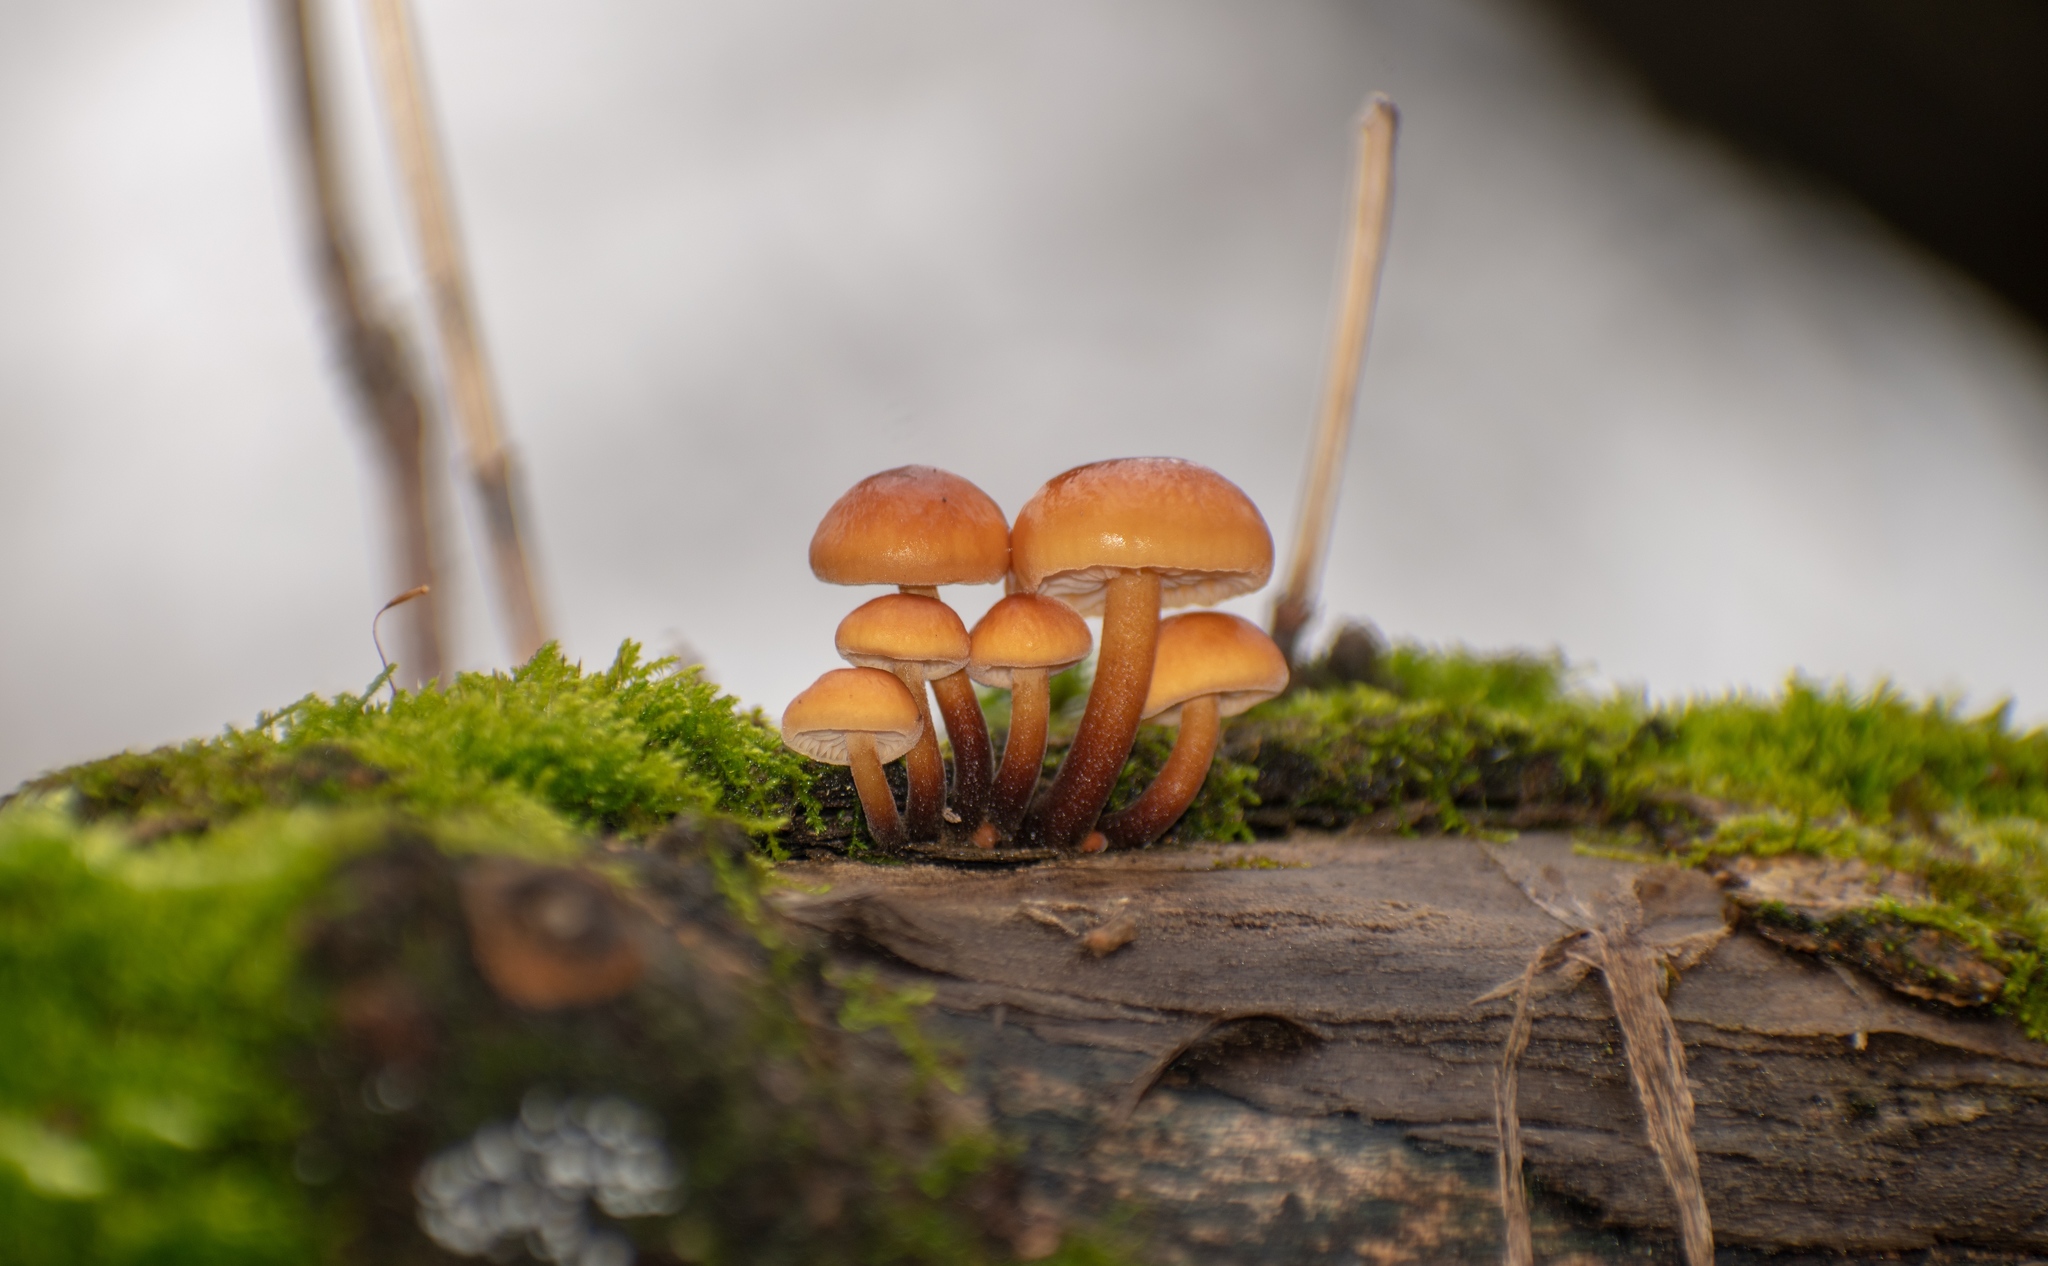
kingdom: Fungi
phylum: Basidiomycota
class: Agaricomycetes
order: Agaricales
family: Physalacriaceae
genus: Flammulina
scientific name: Flammulina
